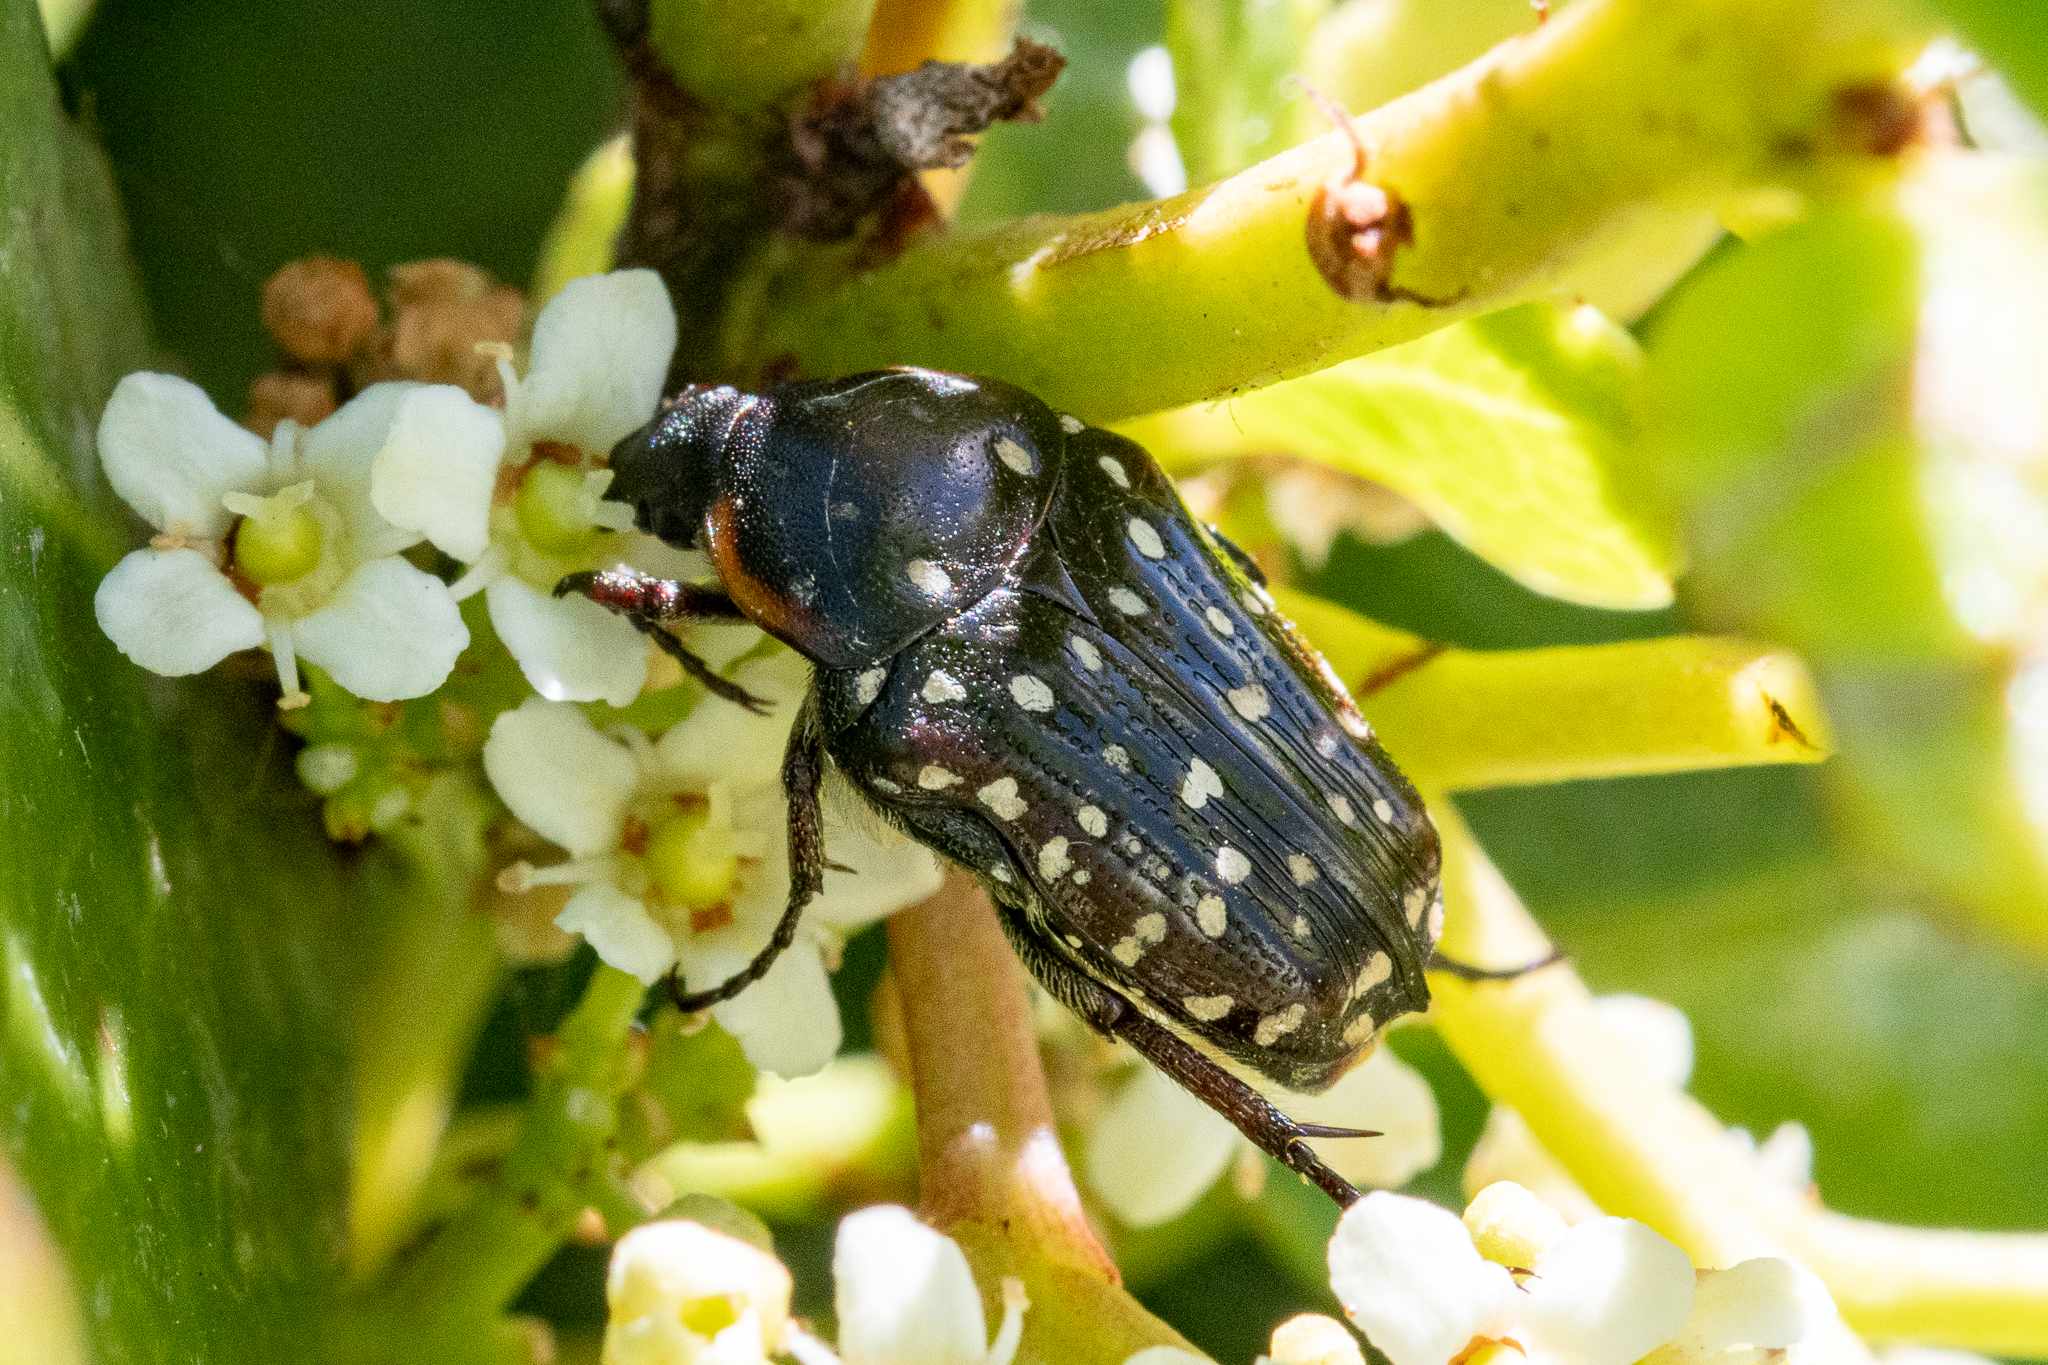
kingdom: Animalia
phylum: Arthropoda
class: Insecta
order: Coleoptera
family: Scarabaeidae
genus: Oxythyrea
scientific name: Oxythyrea
